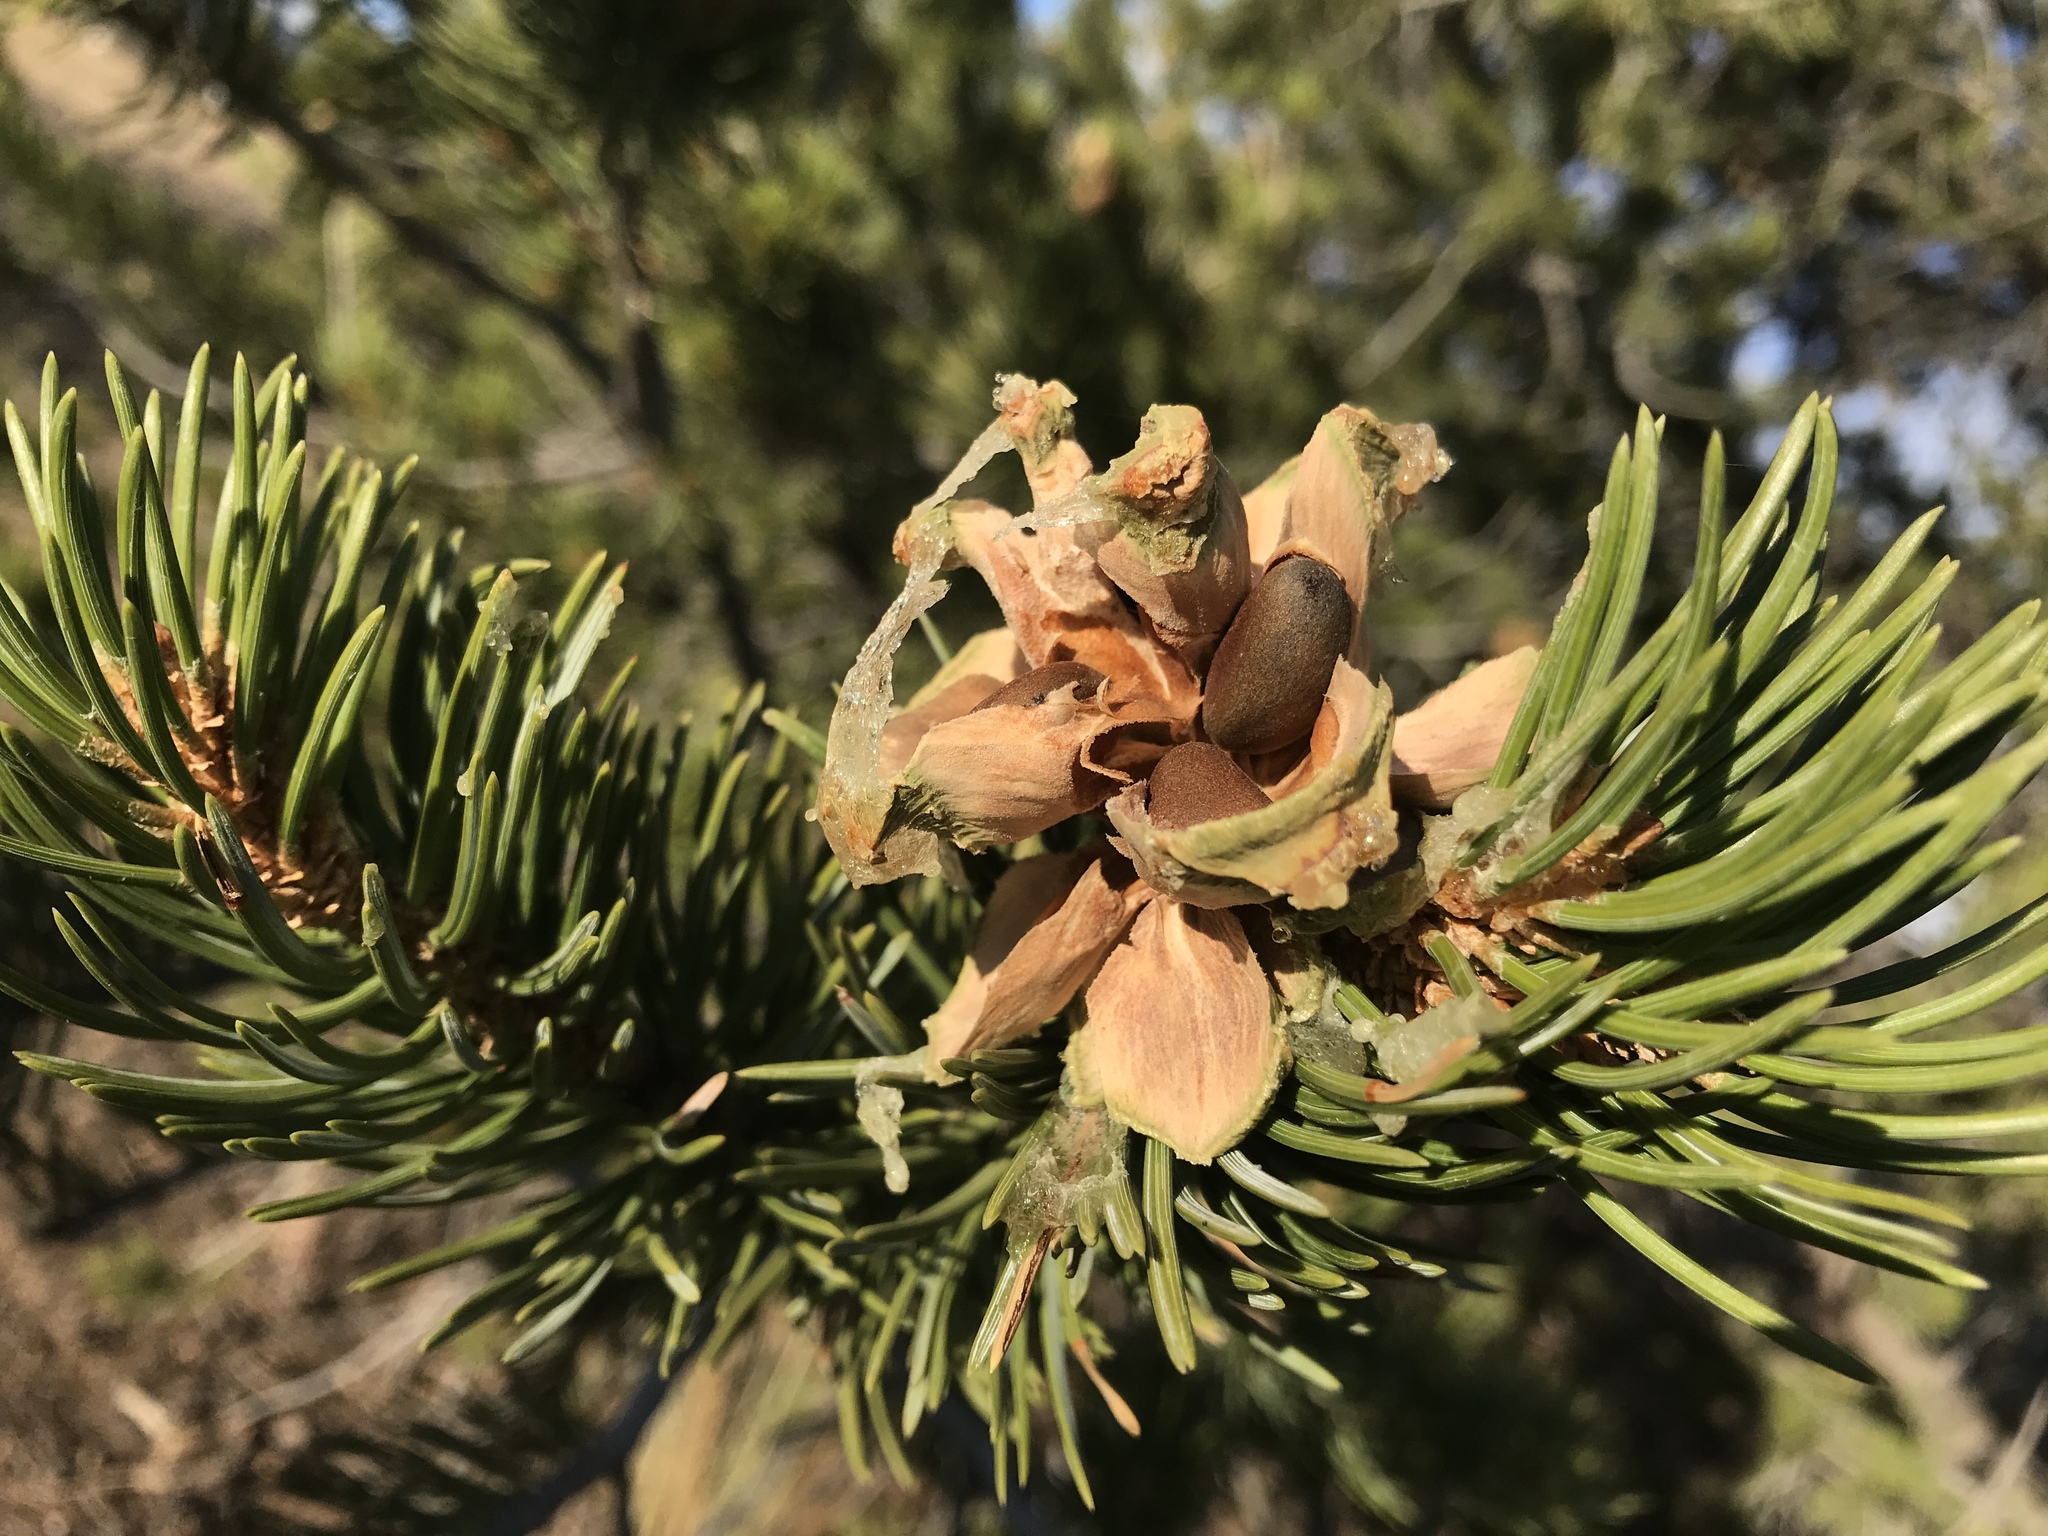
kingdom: Plantae
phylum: Tracheophyta
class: Pinopsida
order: Pinales
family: Pinaceae
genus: Pinus
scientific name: Pinus edulis
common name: Colorado pinyon
